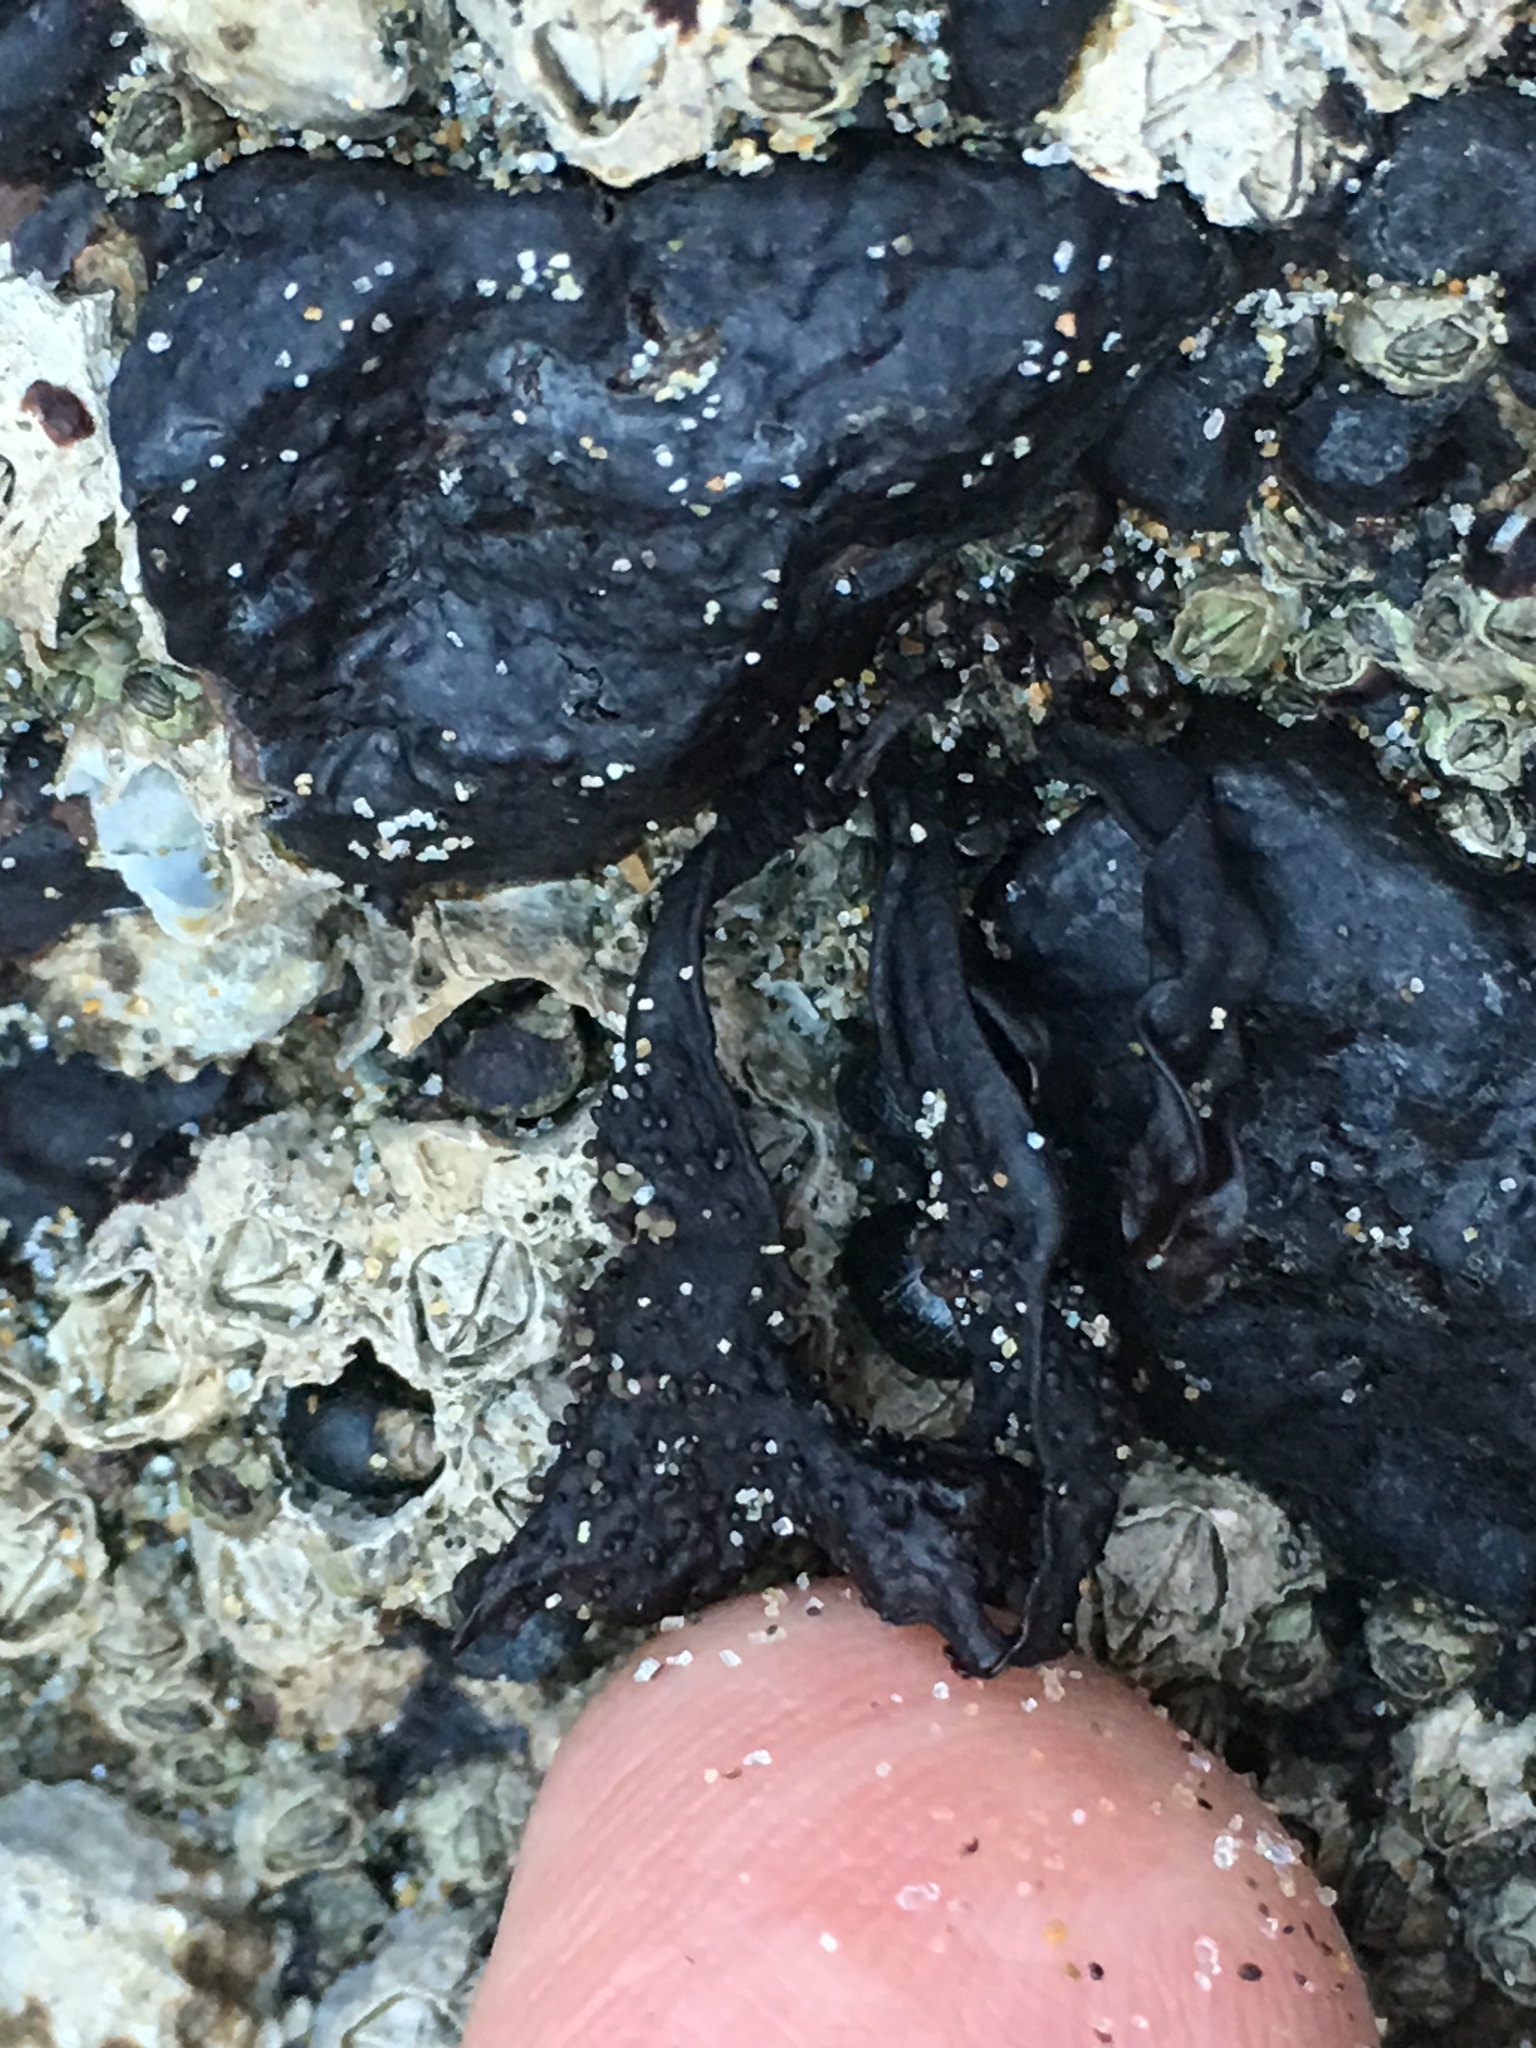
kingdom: Plantae
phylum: Rhodophyta
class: Florideophyceae
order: Gigartinales
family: Phyllophoraceae
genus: Mastocarpus
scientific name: Mastocarpus papillatus
